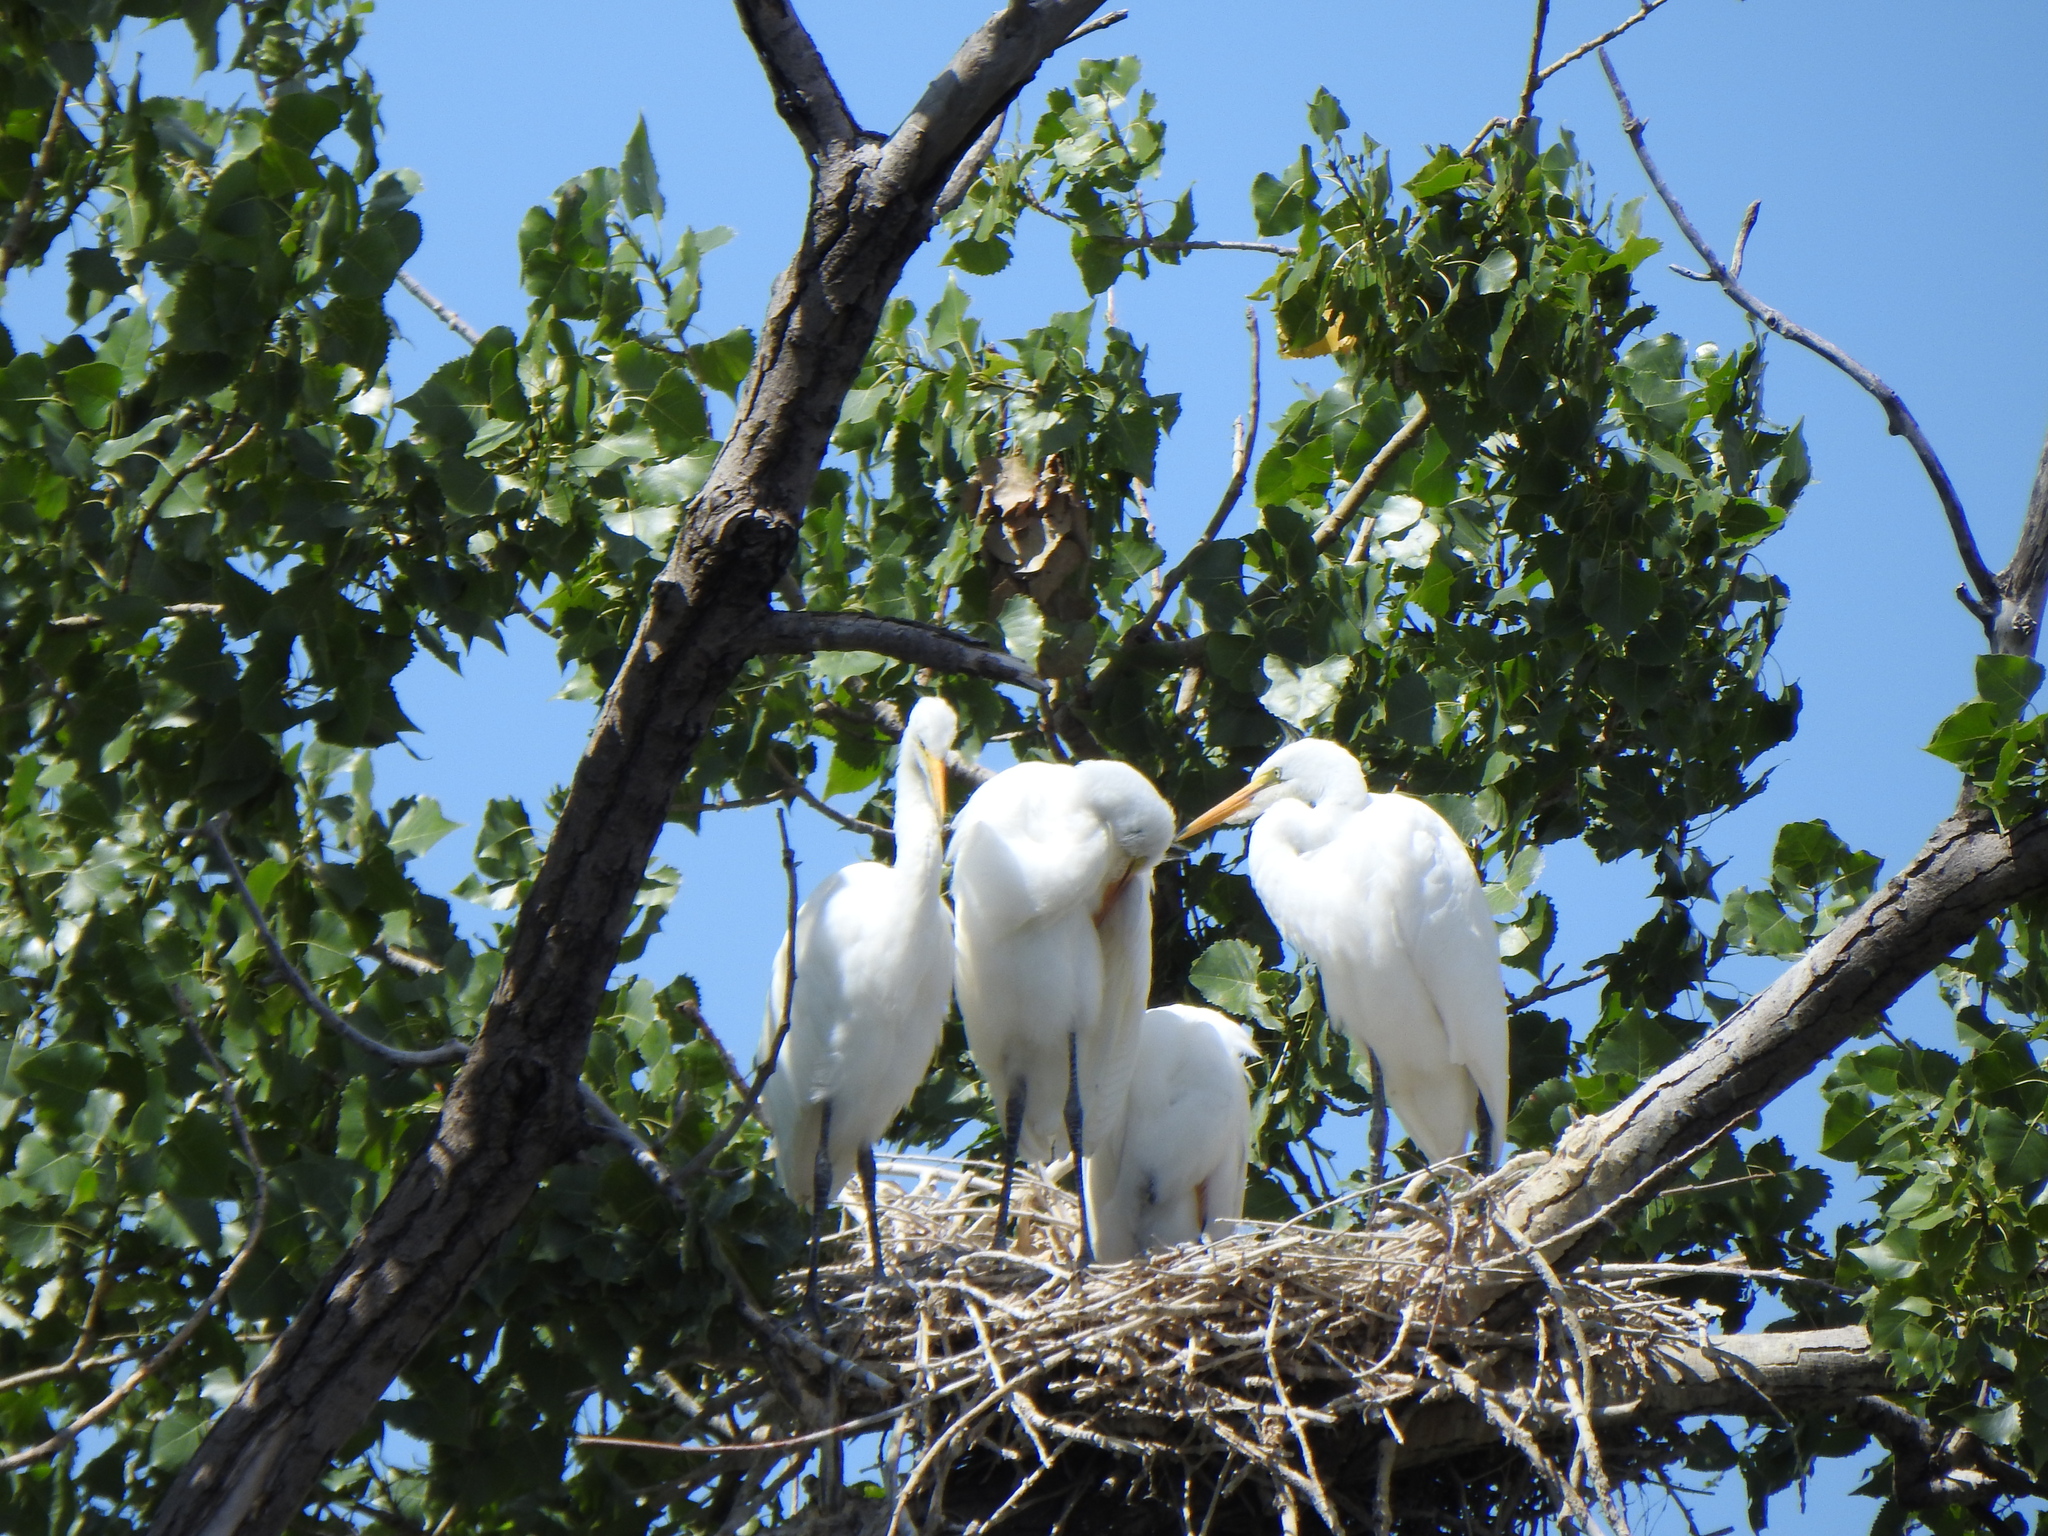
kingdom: Animalia
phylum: Chordata
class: Aves
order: Pelecaniformes
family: Ardeidae
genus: Ardea
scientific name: Ardea alba
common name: Great egret
